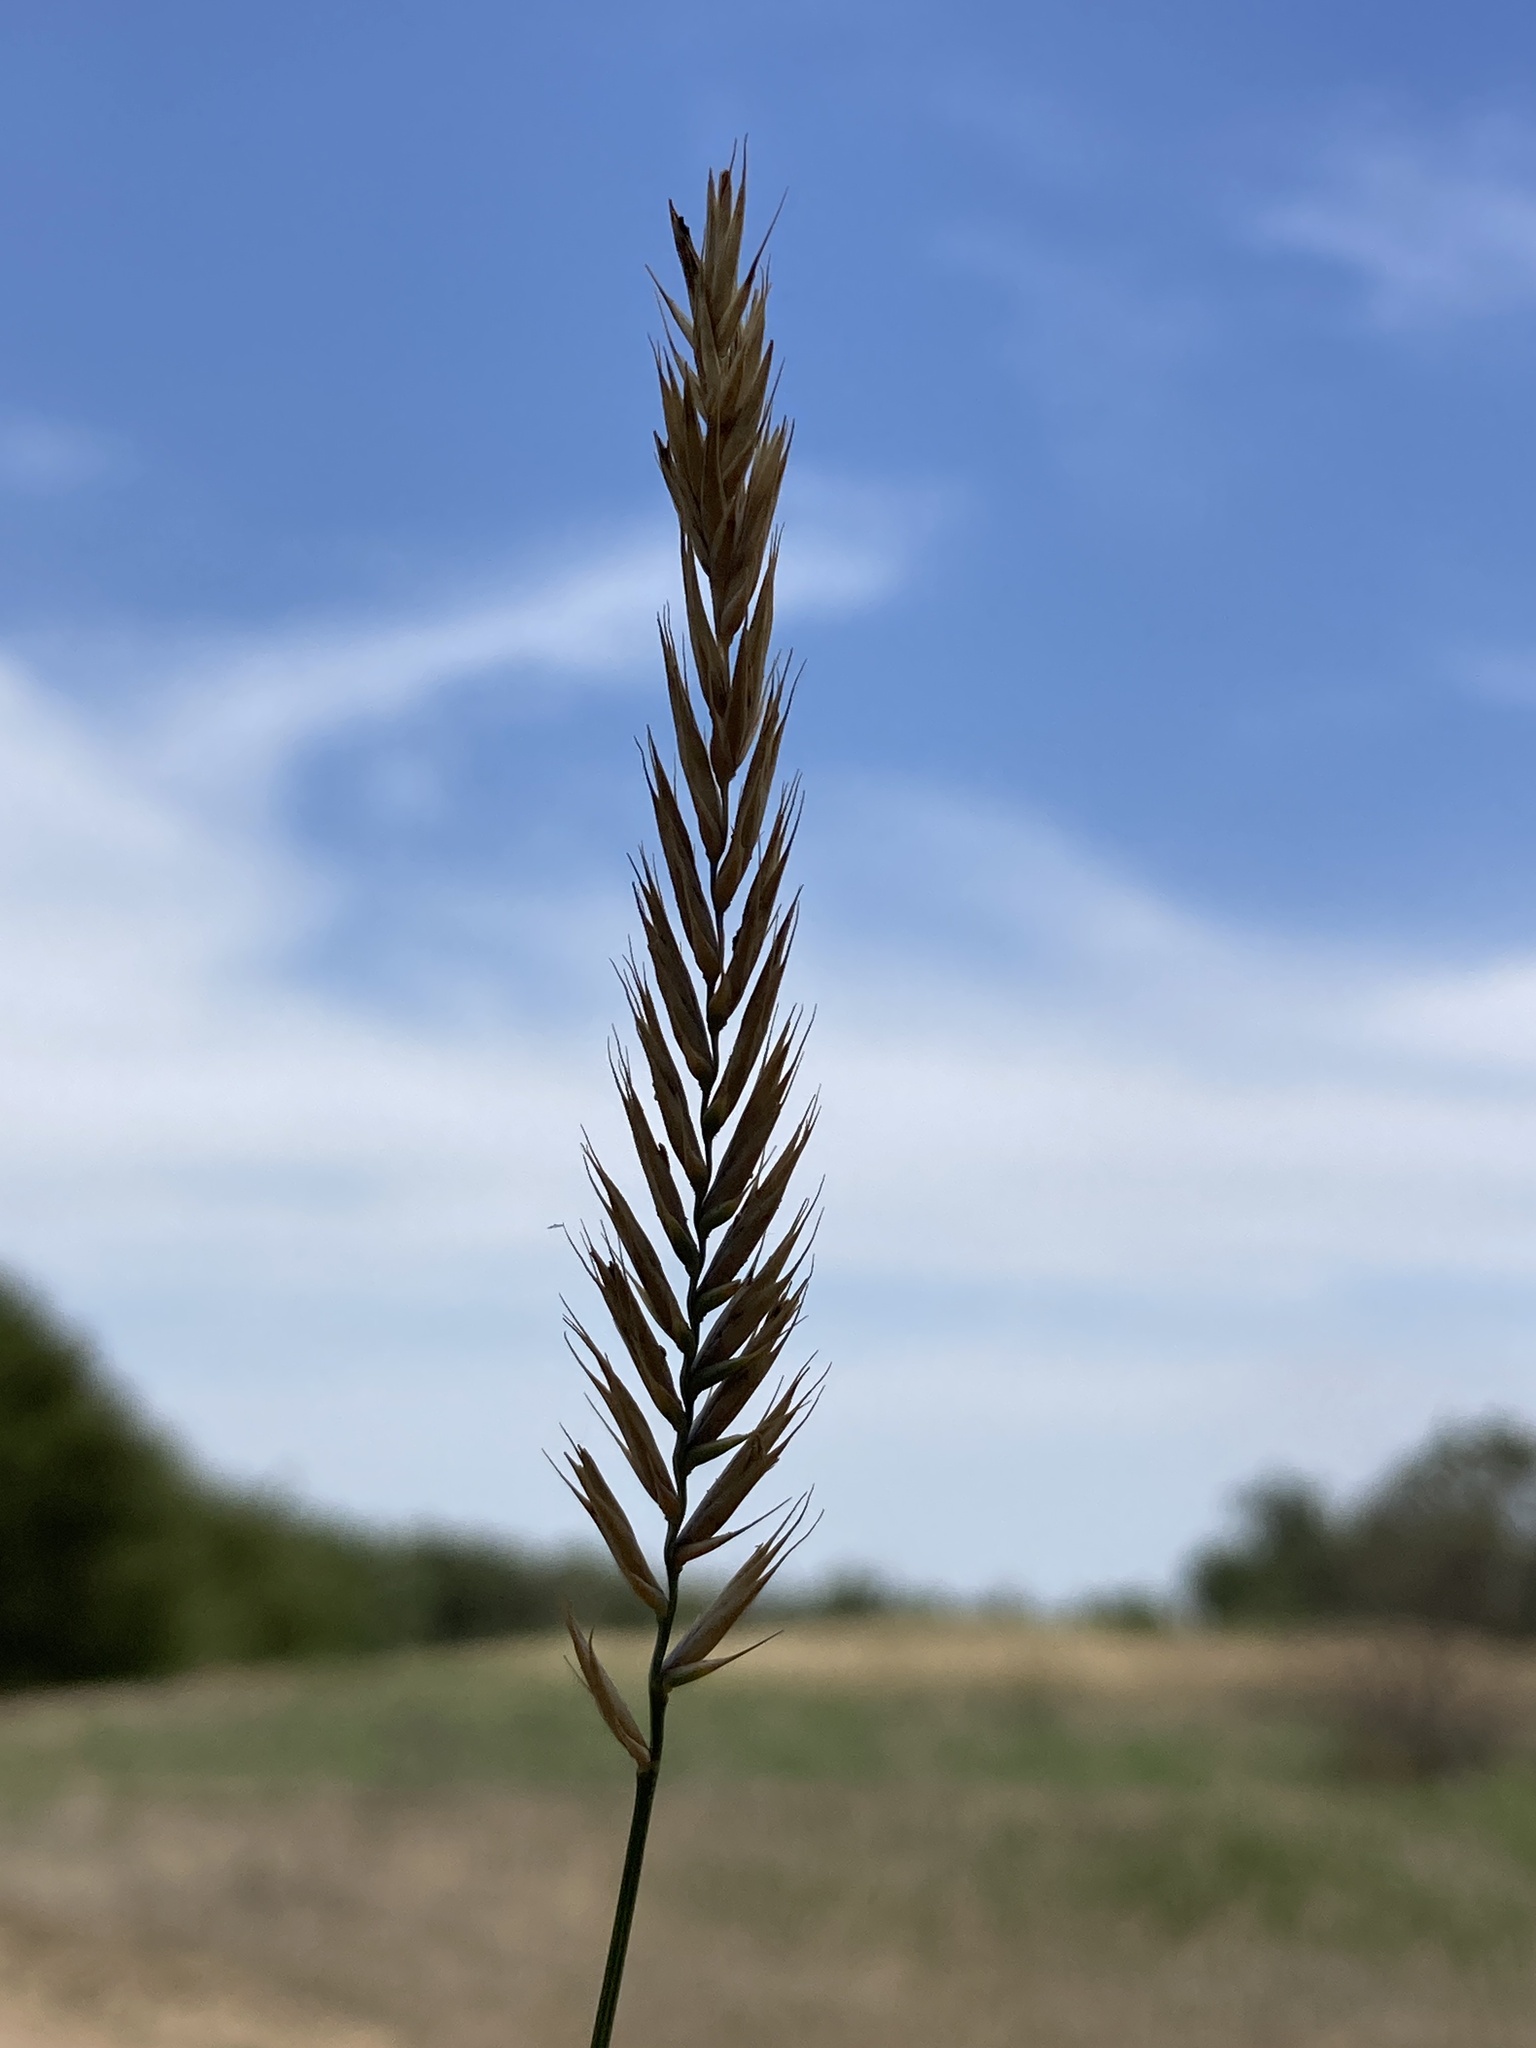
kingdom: Plantae
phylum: Tracheophyta
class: Liliopsida
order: Poales
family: Poaceae
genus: Agropyron
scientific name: Agropyron cristatum
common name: Crested wheatgrass
